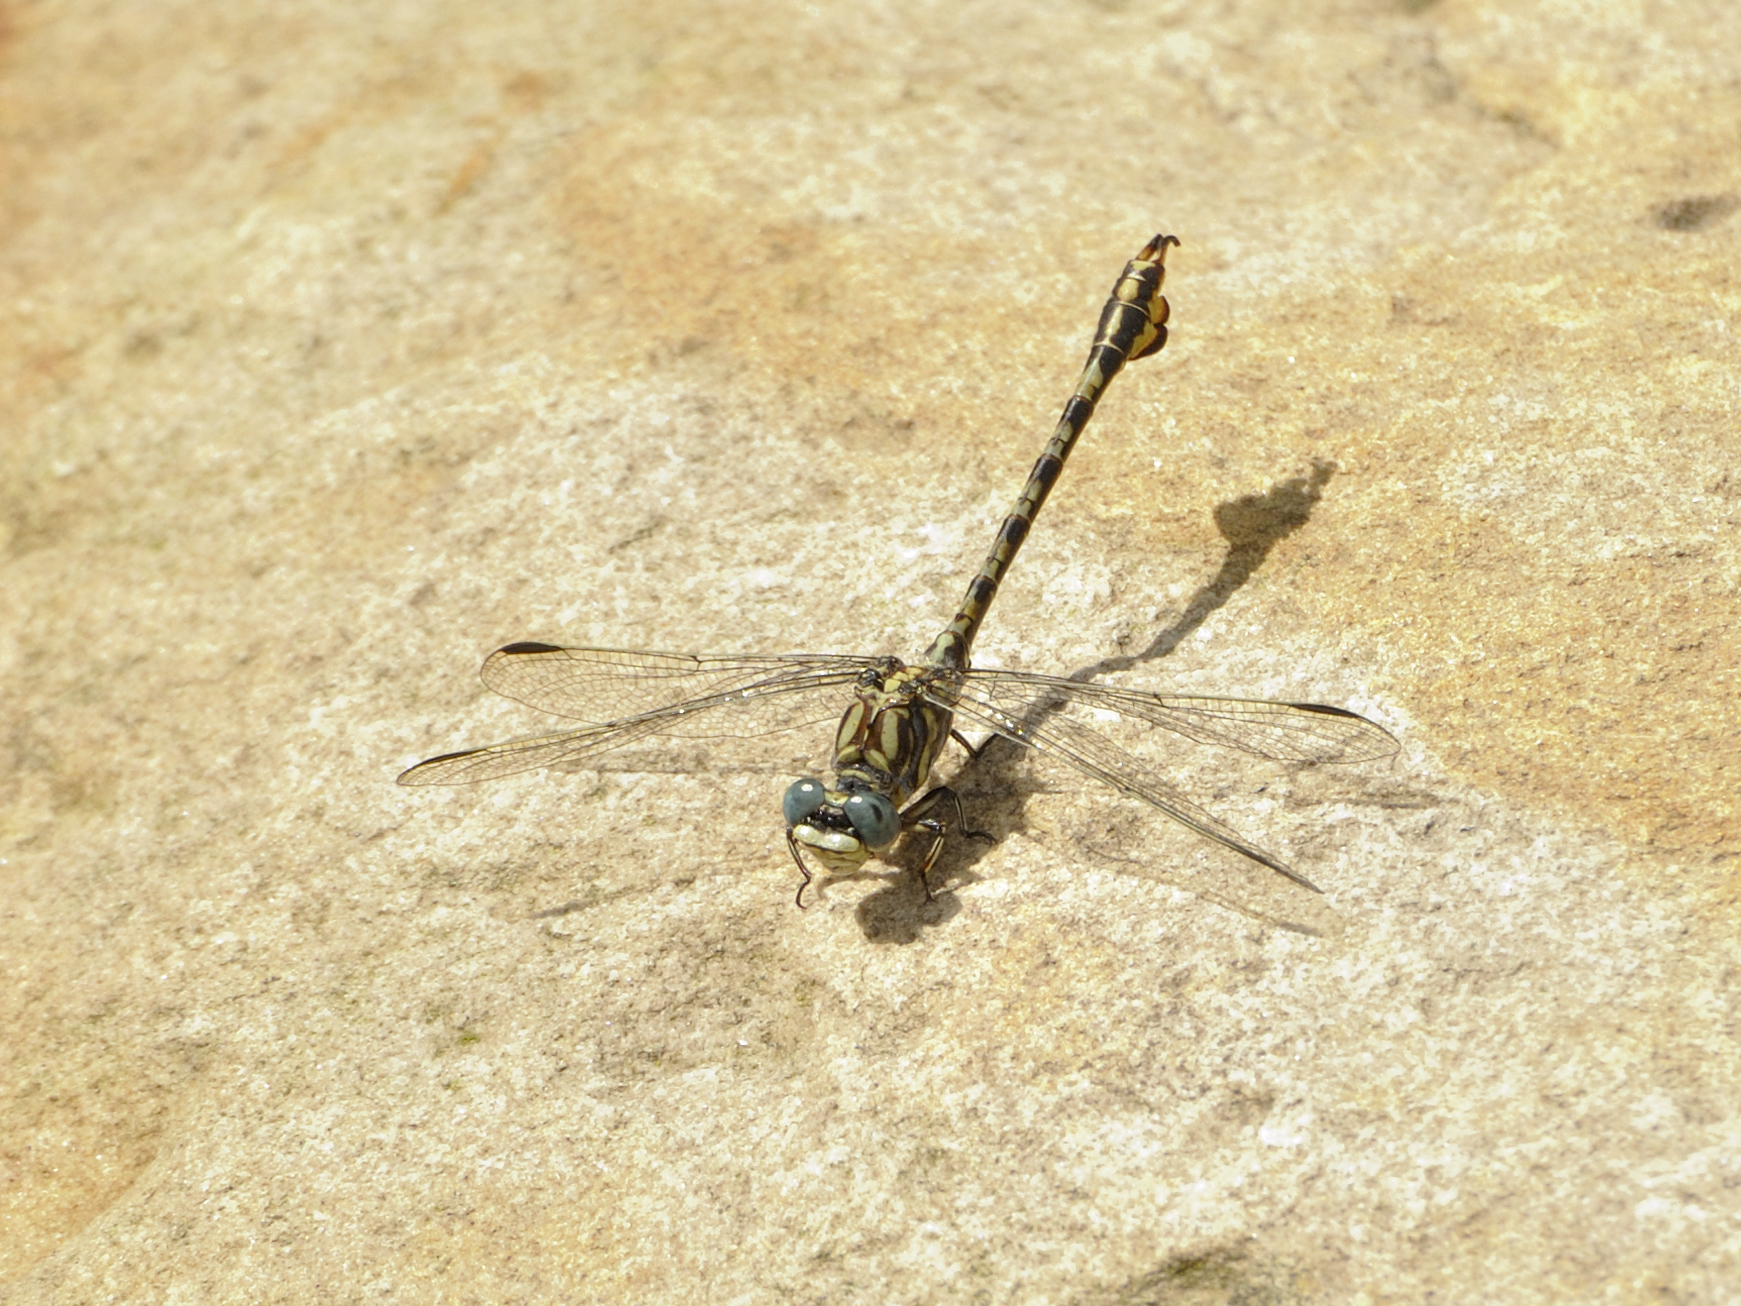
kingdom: Animalia
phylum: Arthropoda
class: Insecta
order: Odonata
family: Gomphidae
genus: Paragomphus
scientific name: Paragomphus cognatus
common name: Boulder hooktail
